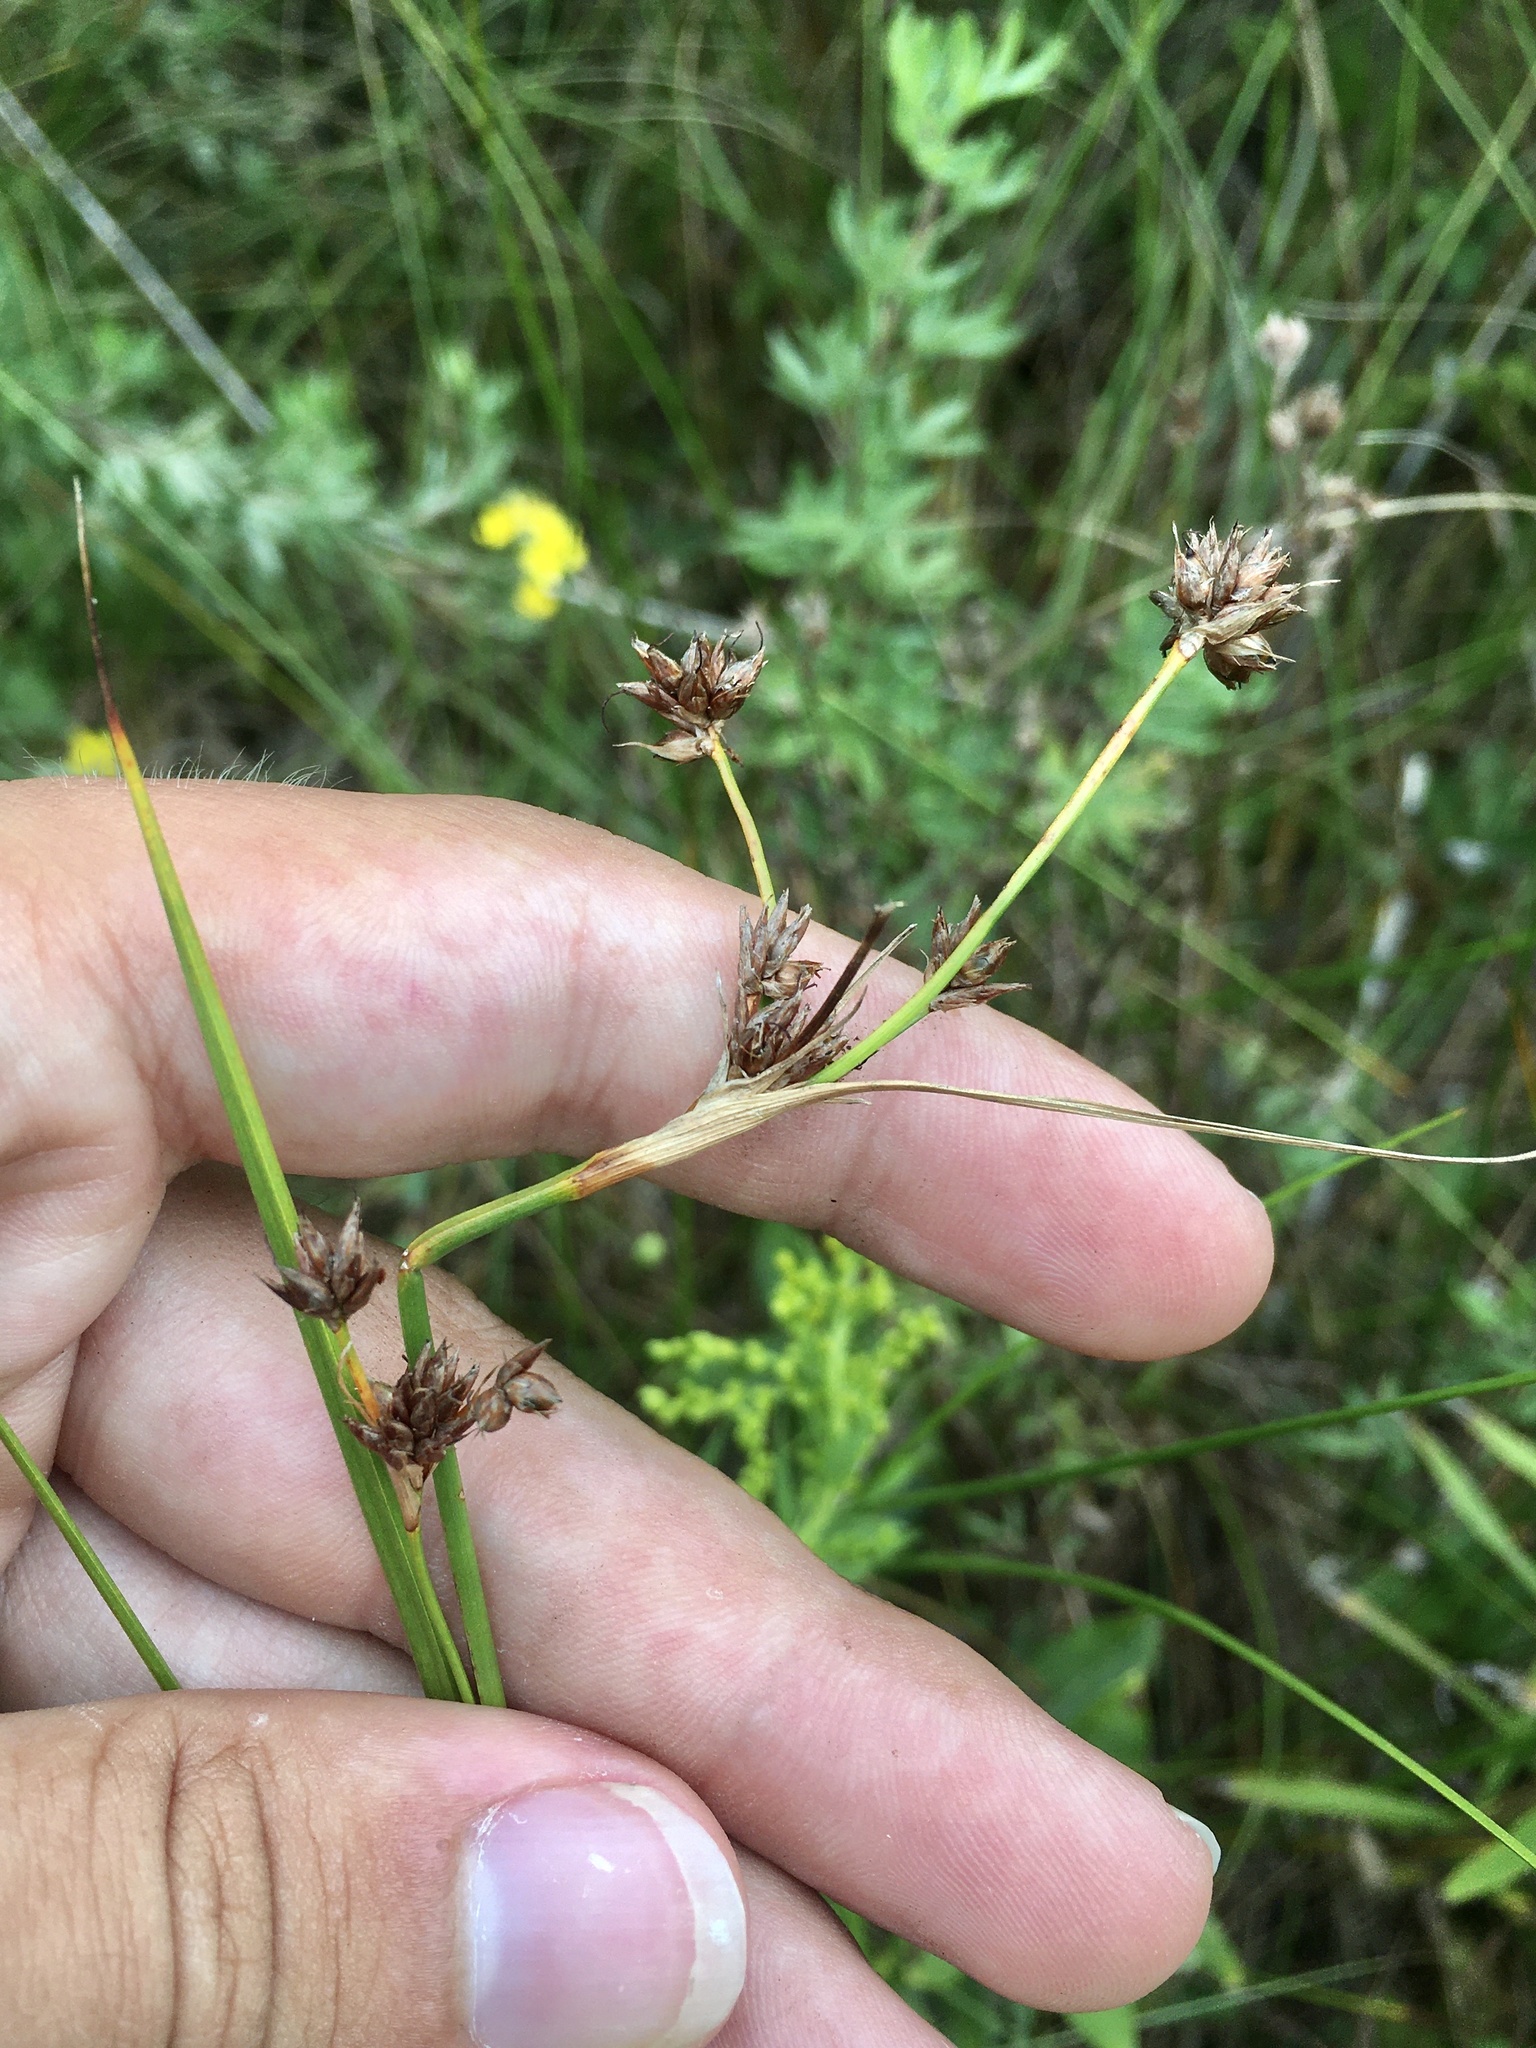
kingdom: Plantae
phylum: Tracheophyta
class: Liliopsida
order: Poales
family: Cyperaceae
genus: Cladium
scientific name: Cladium mariscoides
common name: Smooth sawgrass
